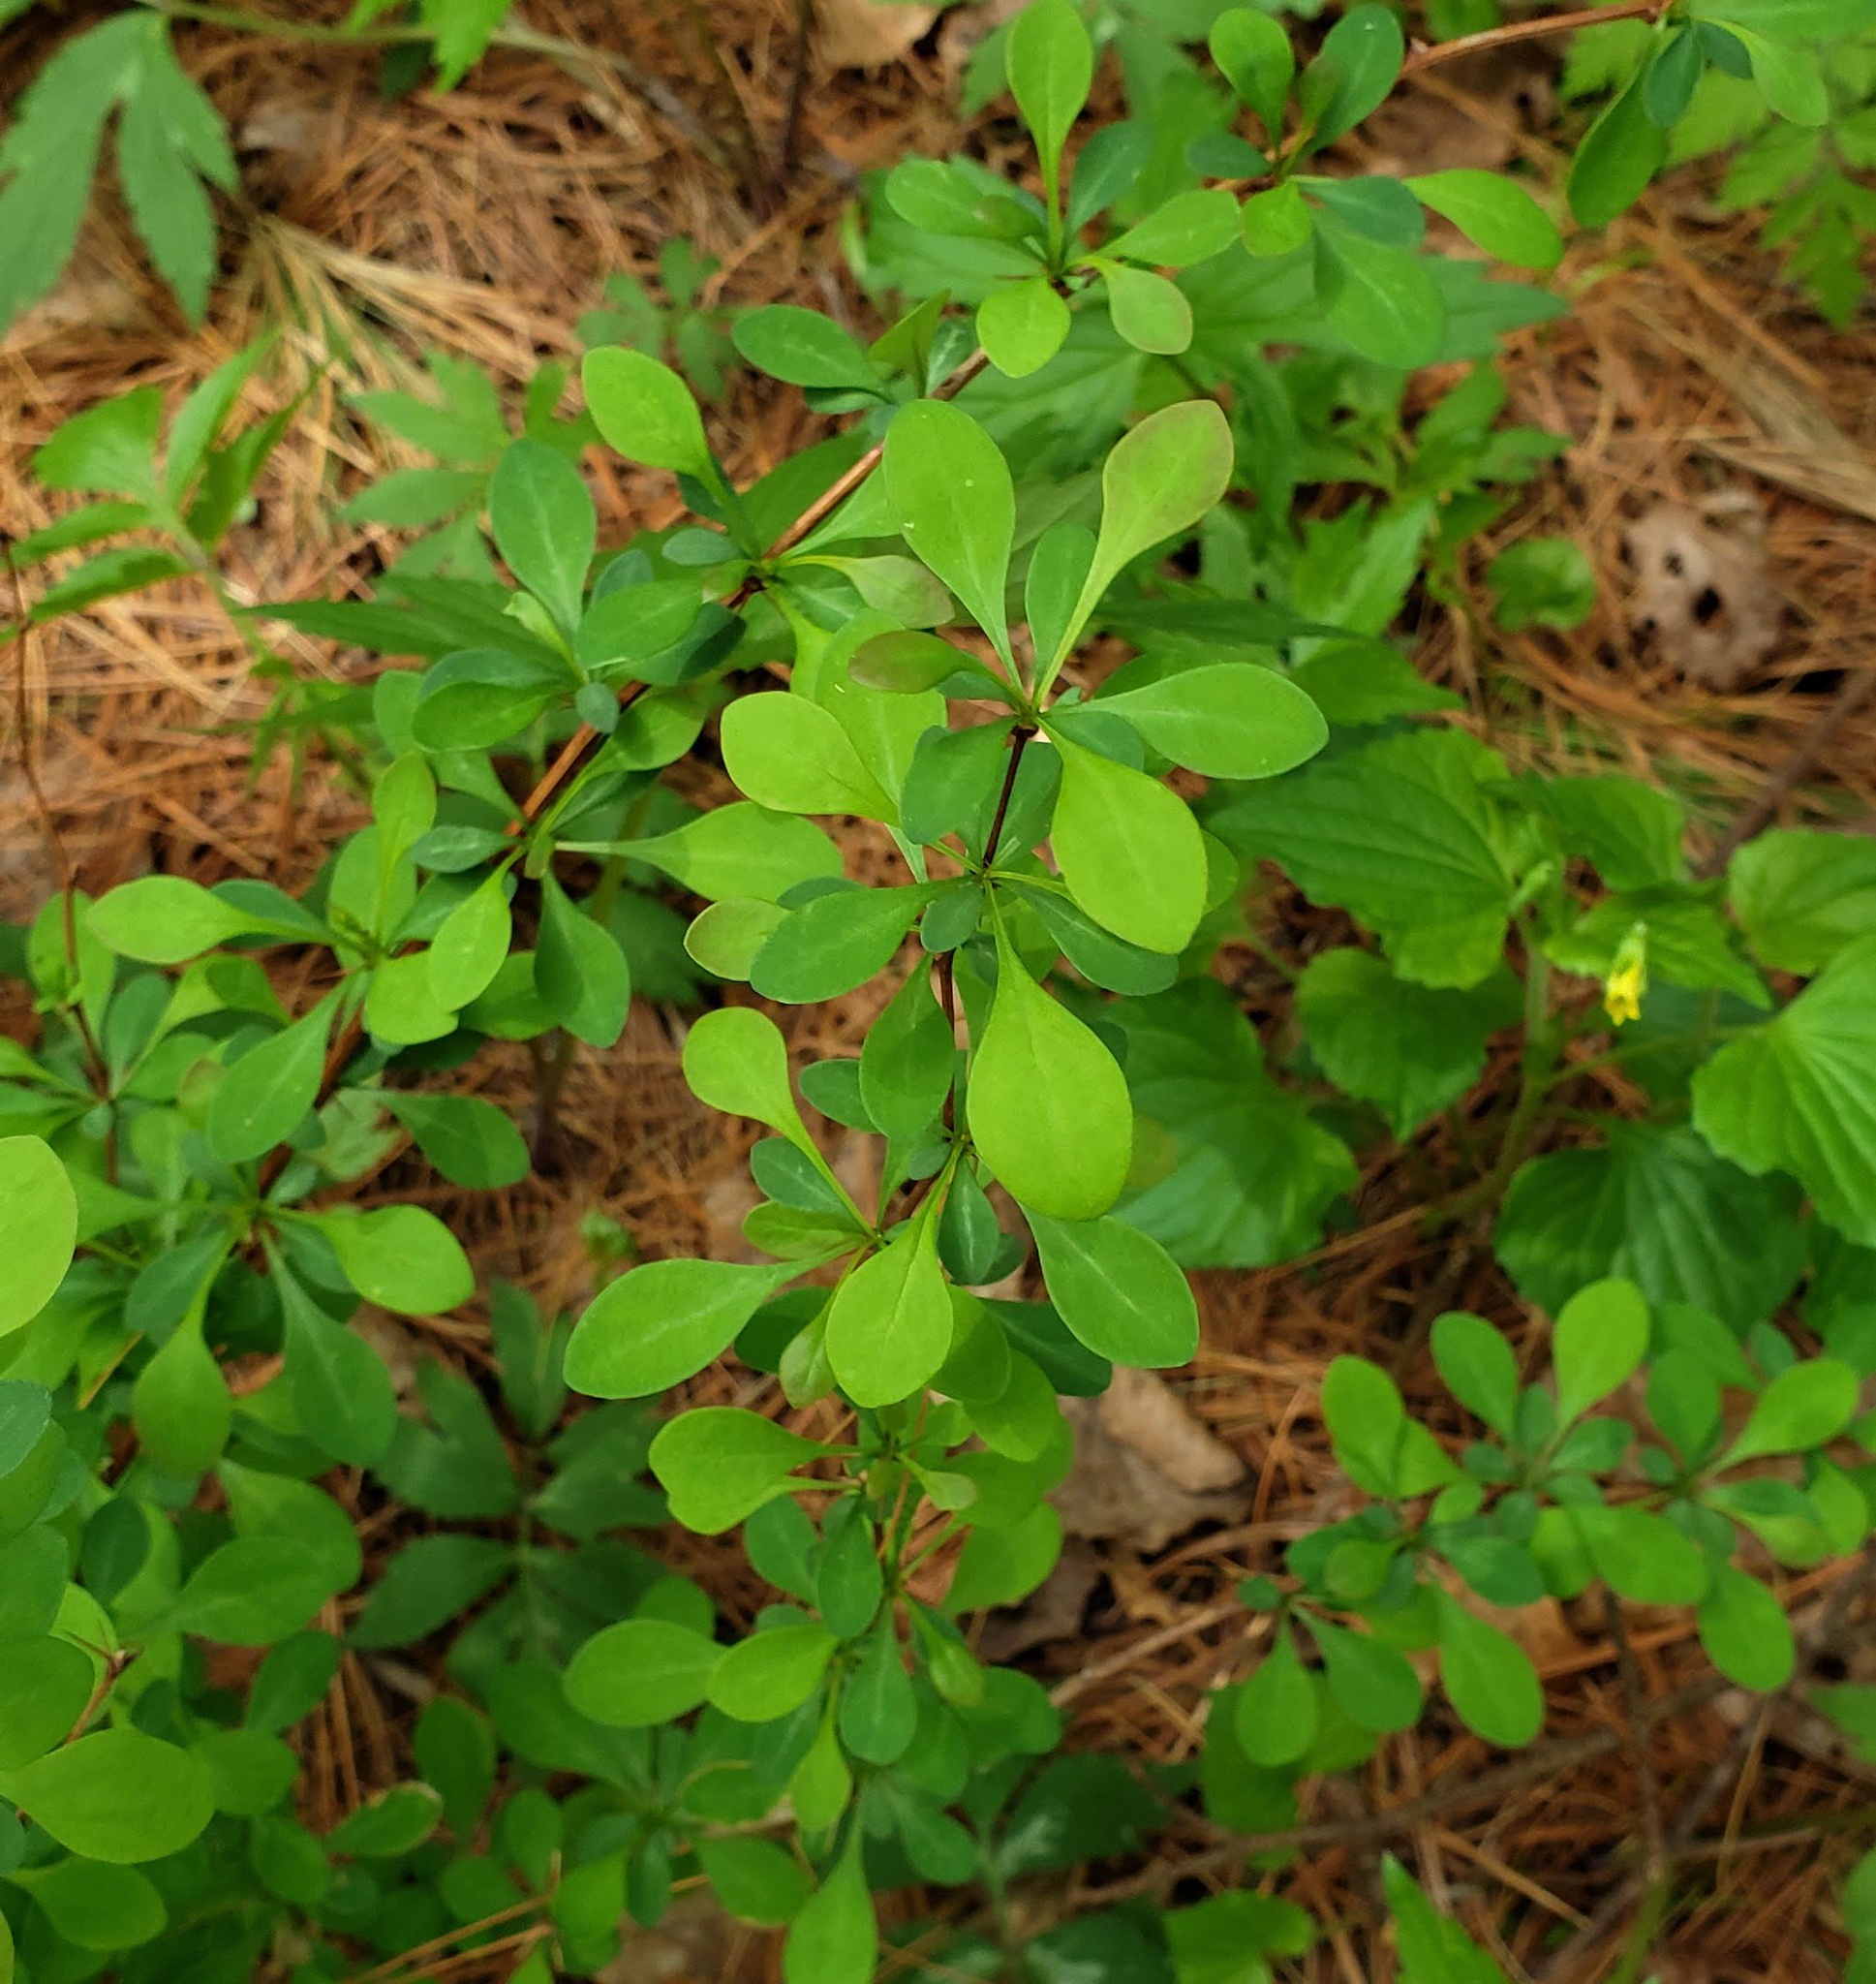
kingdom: Plantae
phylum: Tracheophyta
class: Magnoliopsida
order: Ranunculales
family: Berberidaceae
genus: Berberis
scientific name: Berberis thunbergii
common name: Japanese barberry
